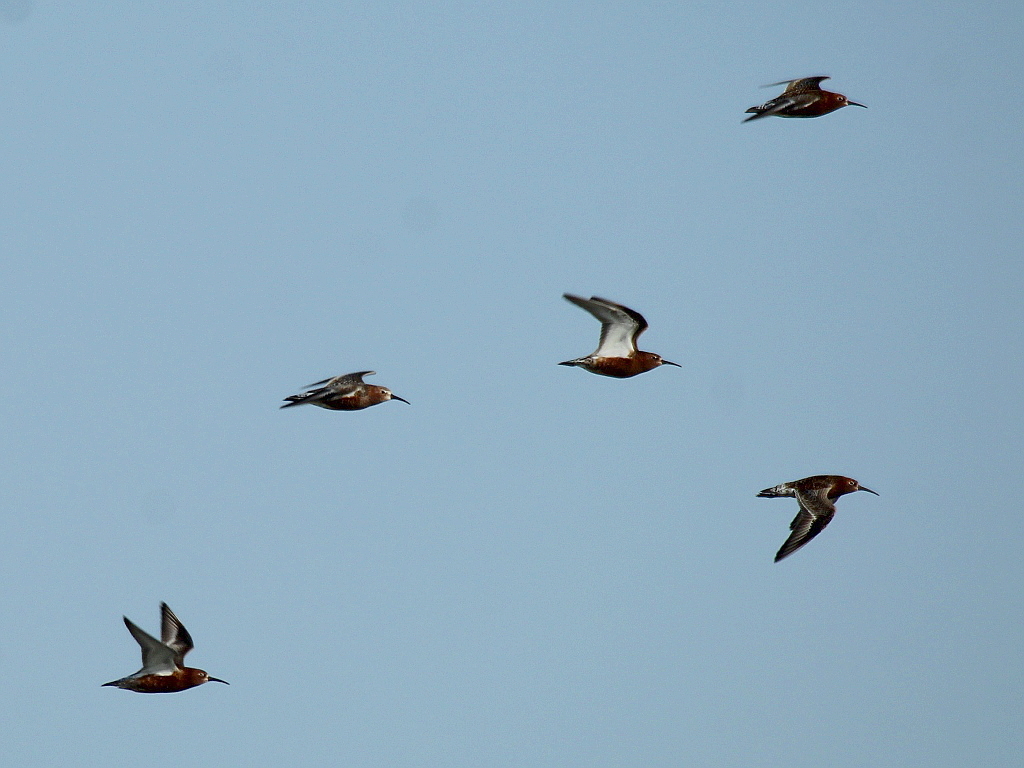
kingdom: Animalia
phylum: Chordata
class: Aves
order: Charadriiformes
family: Scolopacidae
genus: Calidris
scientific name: Calidris ferruginea
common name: Curlew sandpiper
